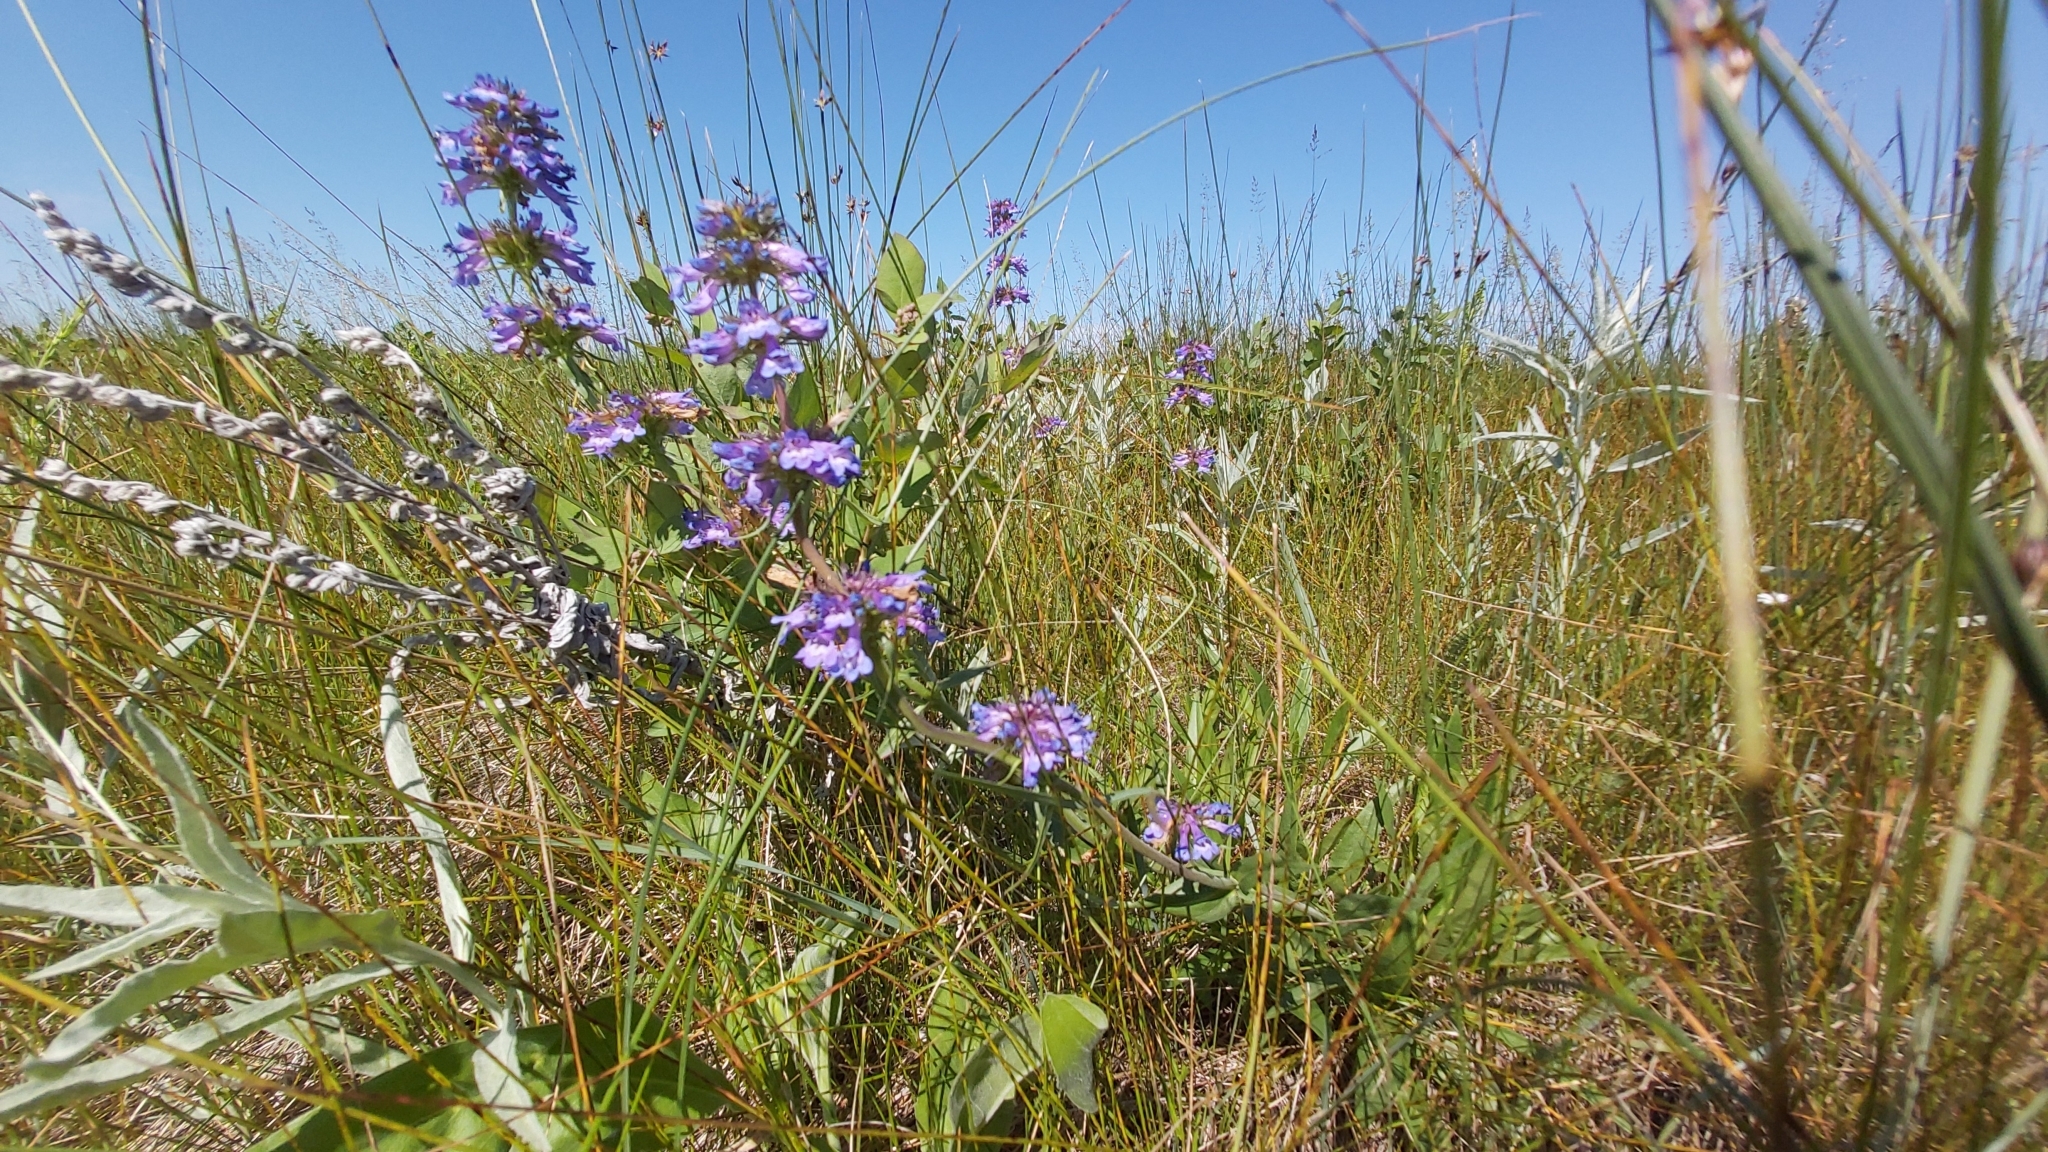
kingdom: Plantae
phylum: Tracheophyta
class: Magnoliopsida
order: Lamiales
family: Plantaginaceae
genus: Penstemon
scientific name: Penstemon procerus
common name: Small-flower penstemon
